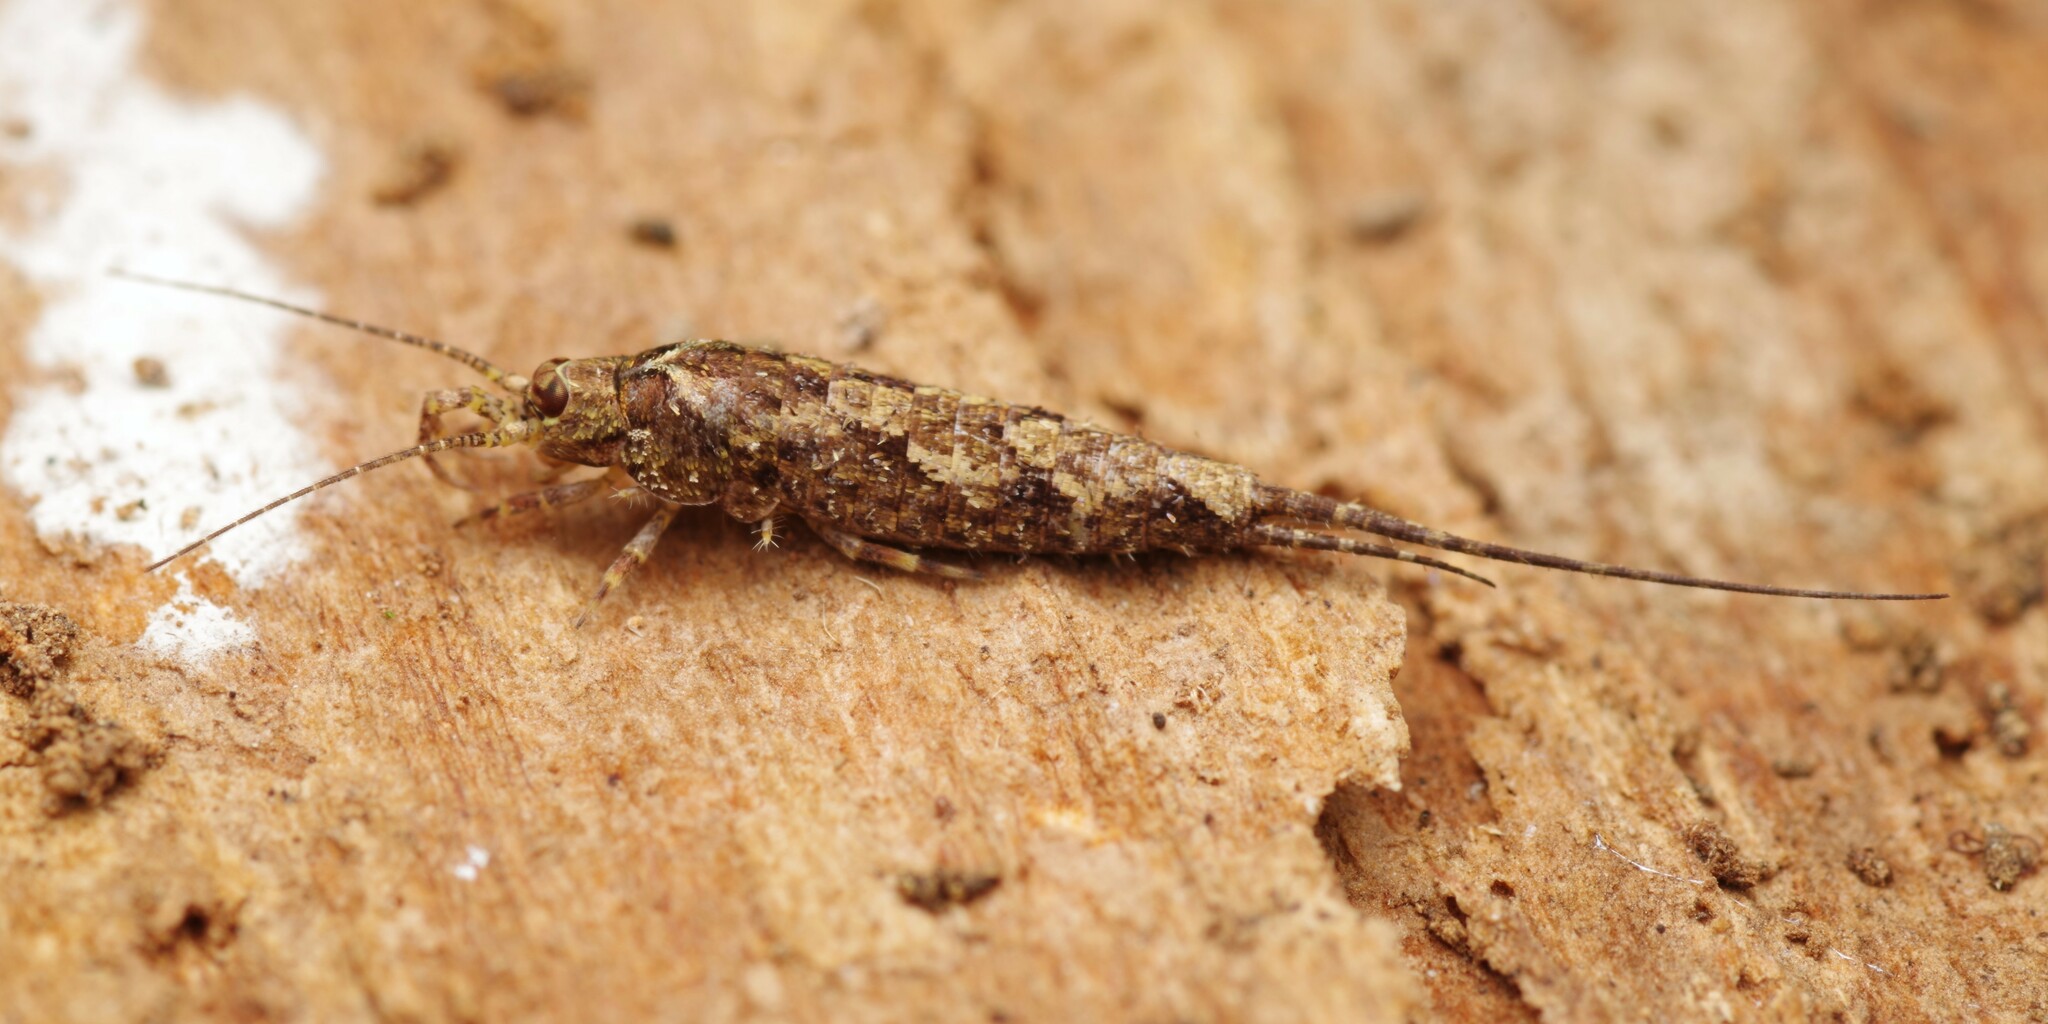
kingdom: Animalia
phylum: Arthropoda
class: Insecta
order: Archaeognatha
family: Machilidae
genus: Lepismachilis
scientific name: Lepismachilis y-signata
